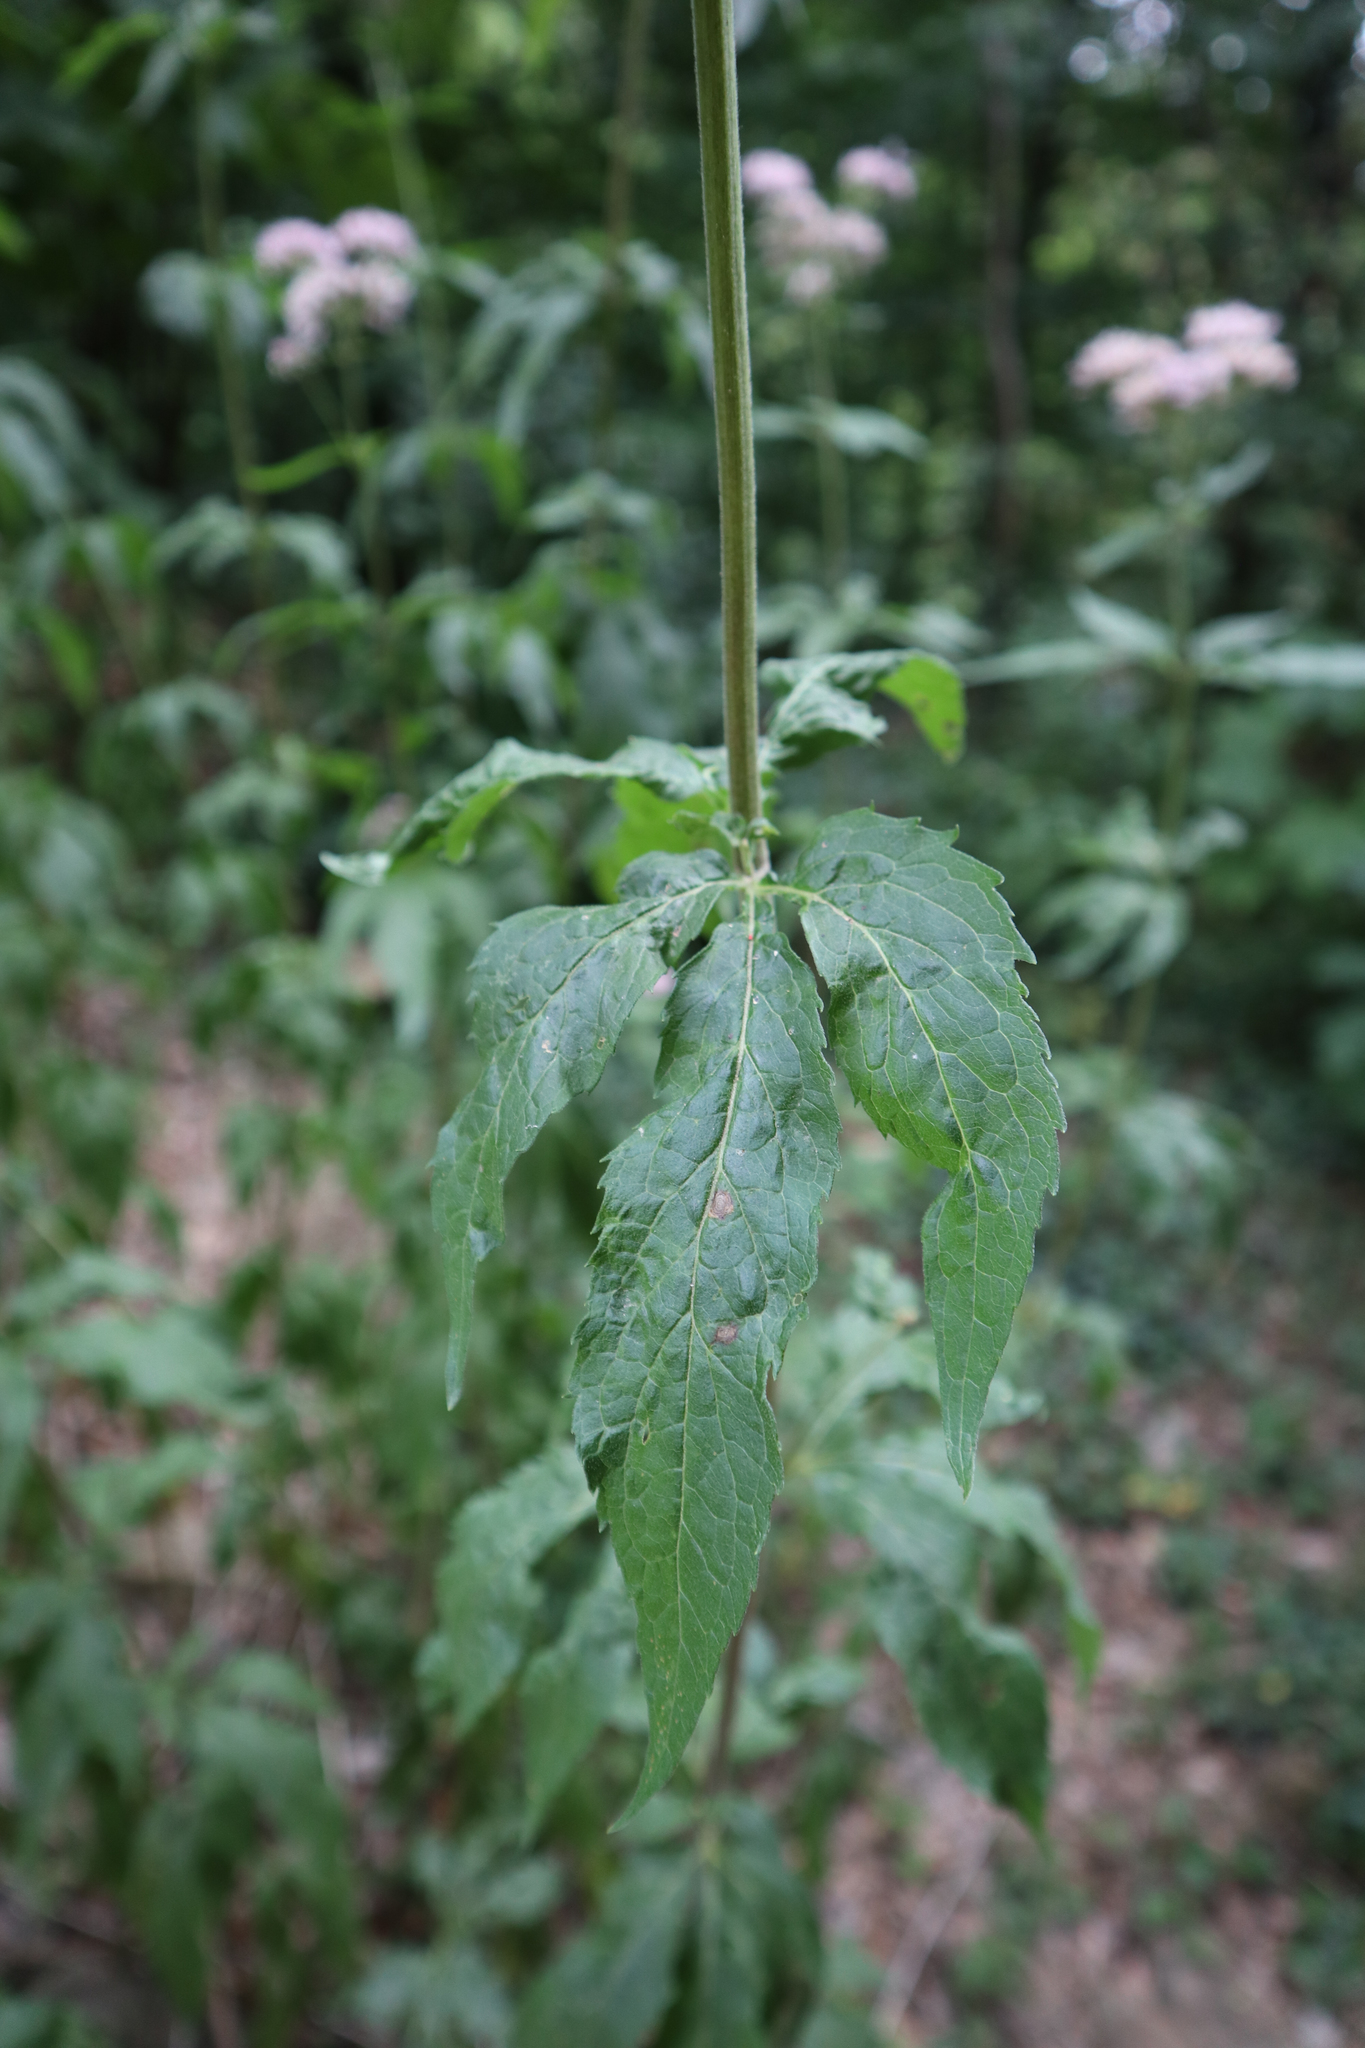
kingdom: Plantae
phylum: Tracheophyta
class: Magnoliopsida
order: Asterales
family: Asteraceae
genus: Eupatorium
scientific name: Eupatorium cannabinum
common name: Hemp-agrimony
